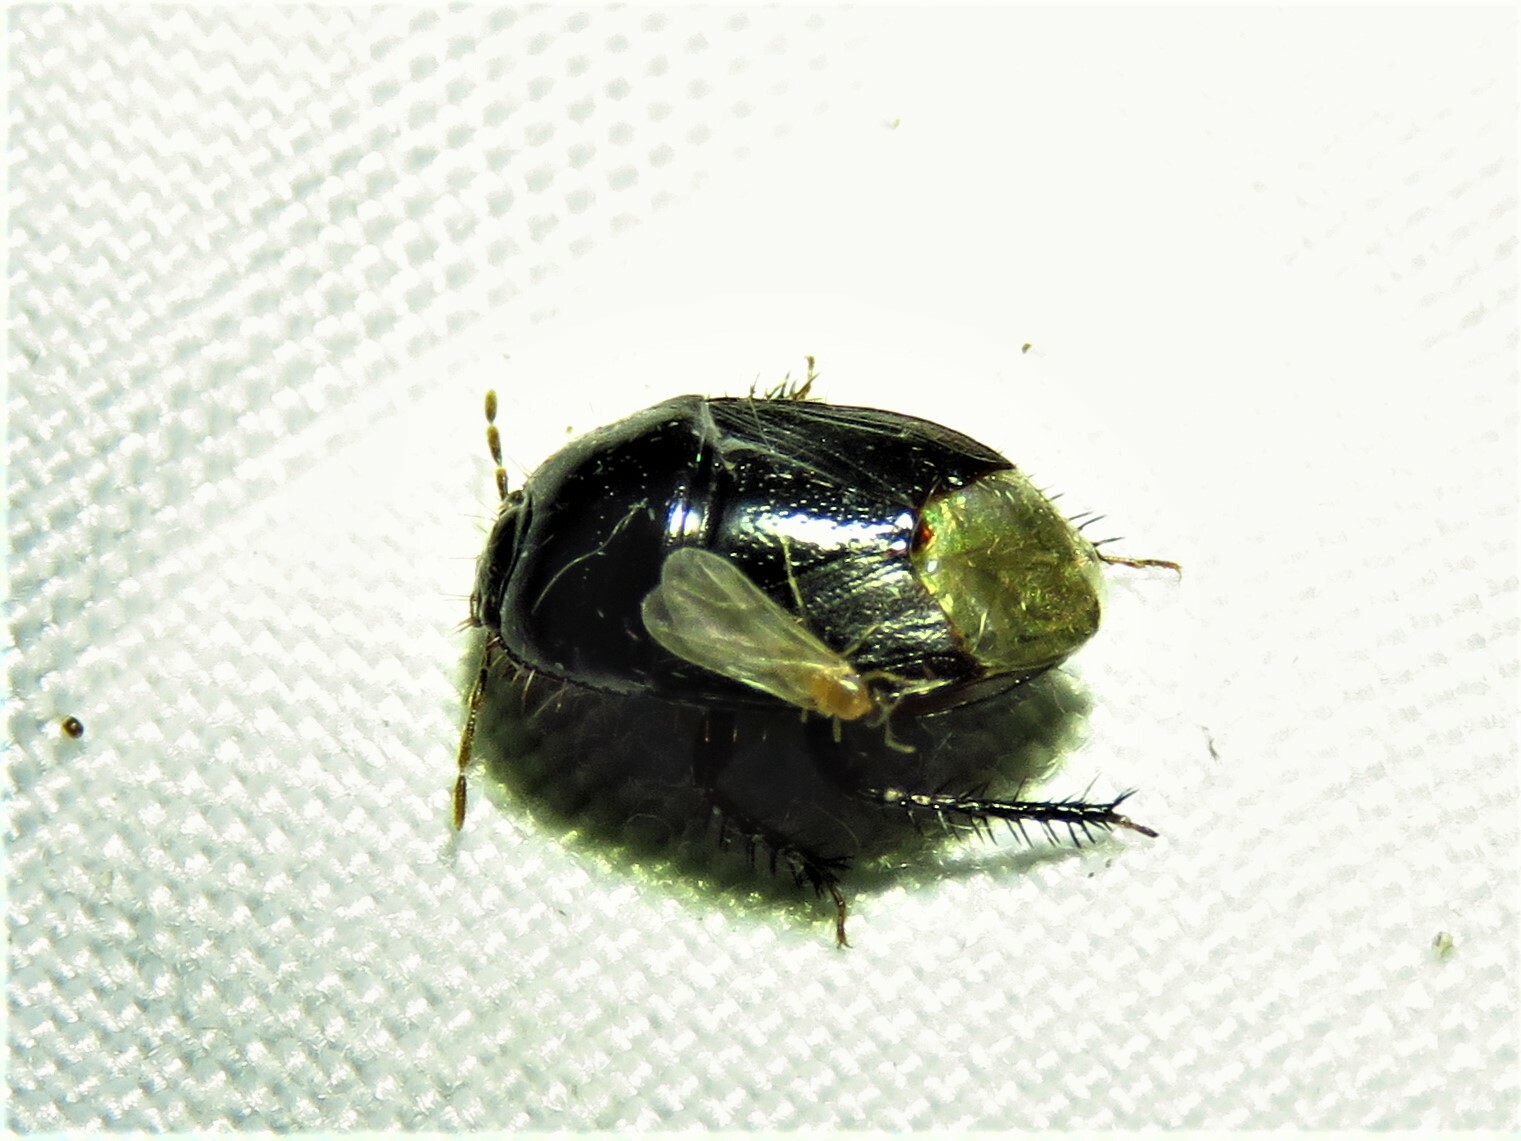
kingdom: Animalia
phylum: Arthropoda
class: Insecta
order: Hemiptera
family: Cydnidae
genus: Pangaeus
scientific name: Pangaeus bilineatus
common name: Burrower bug
